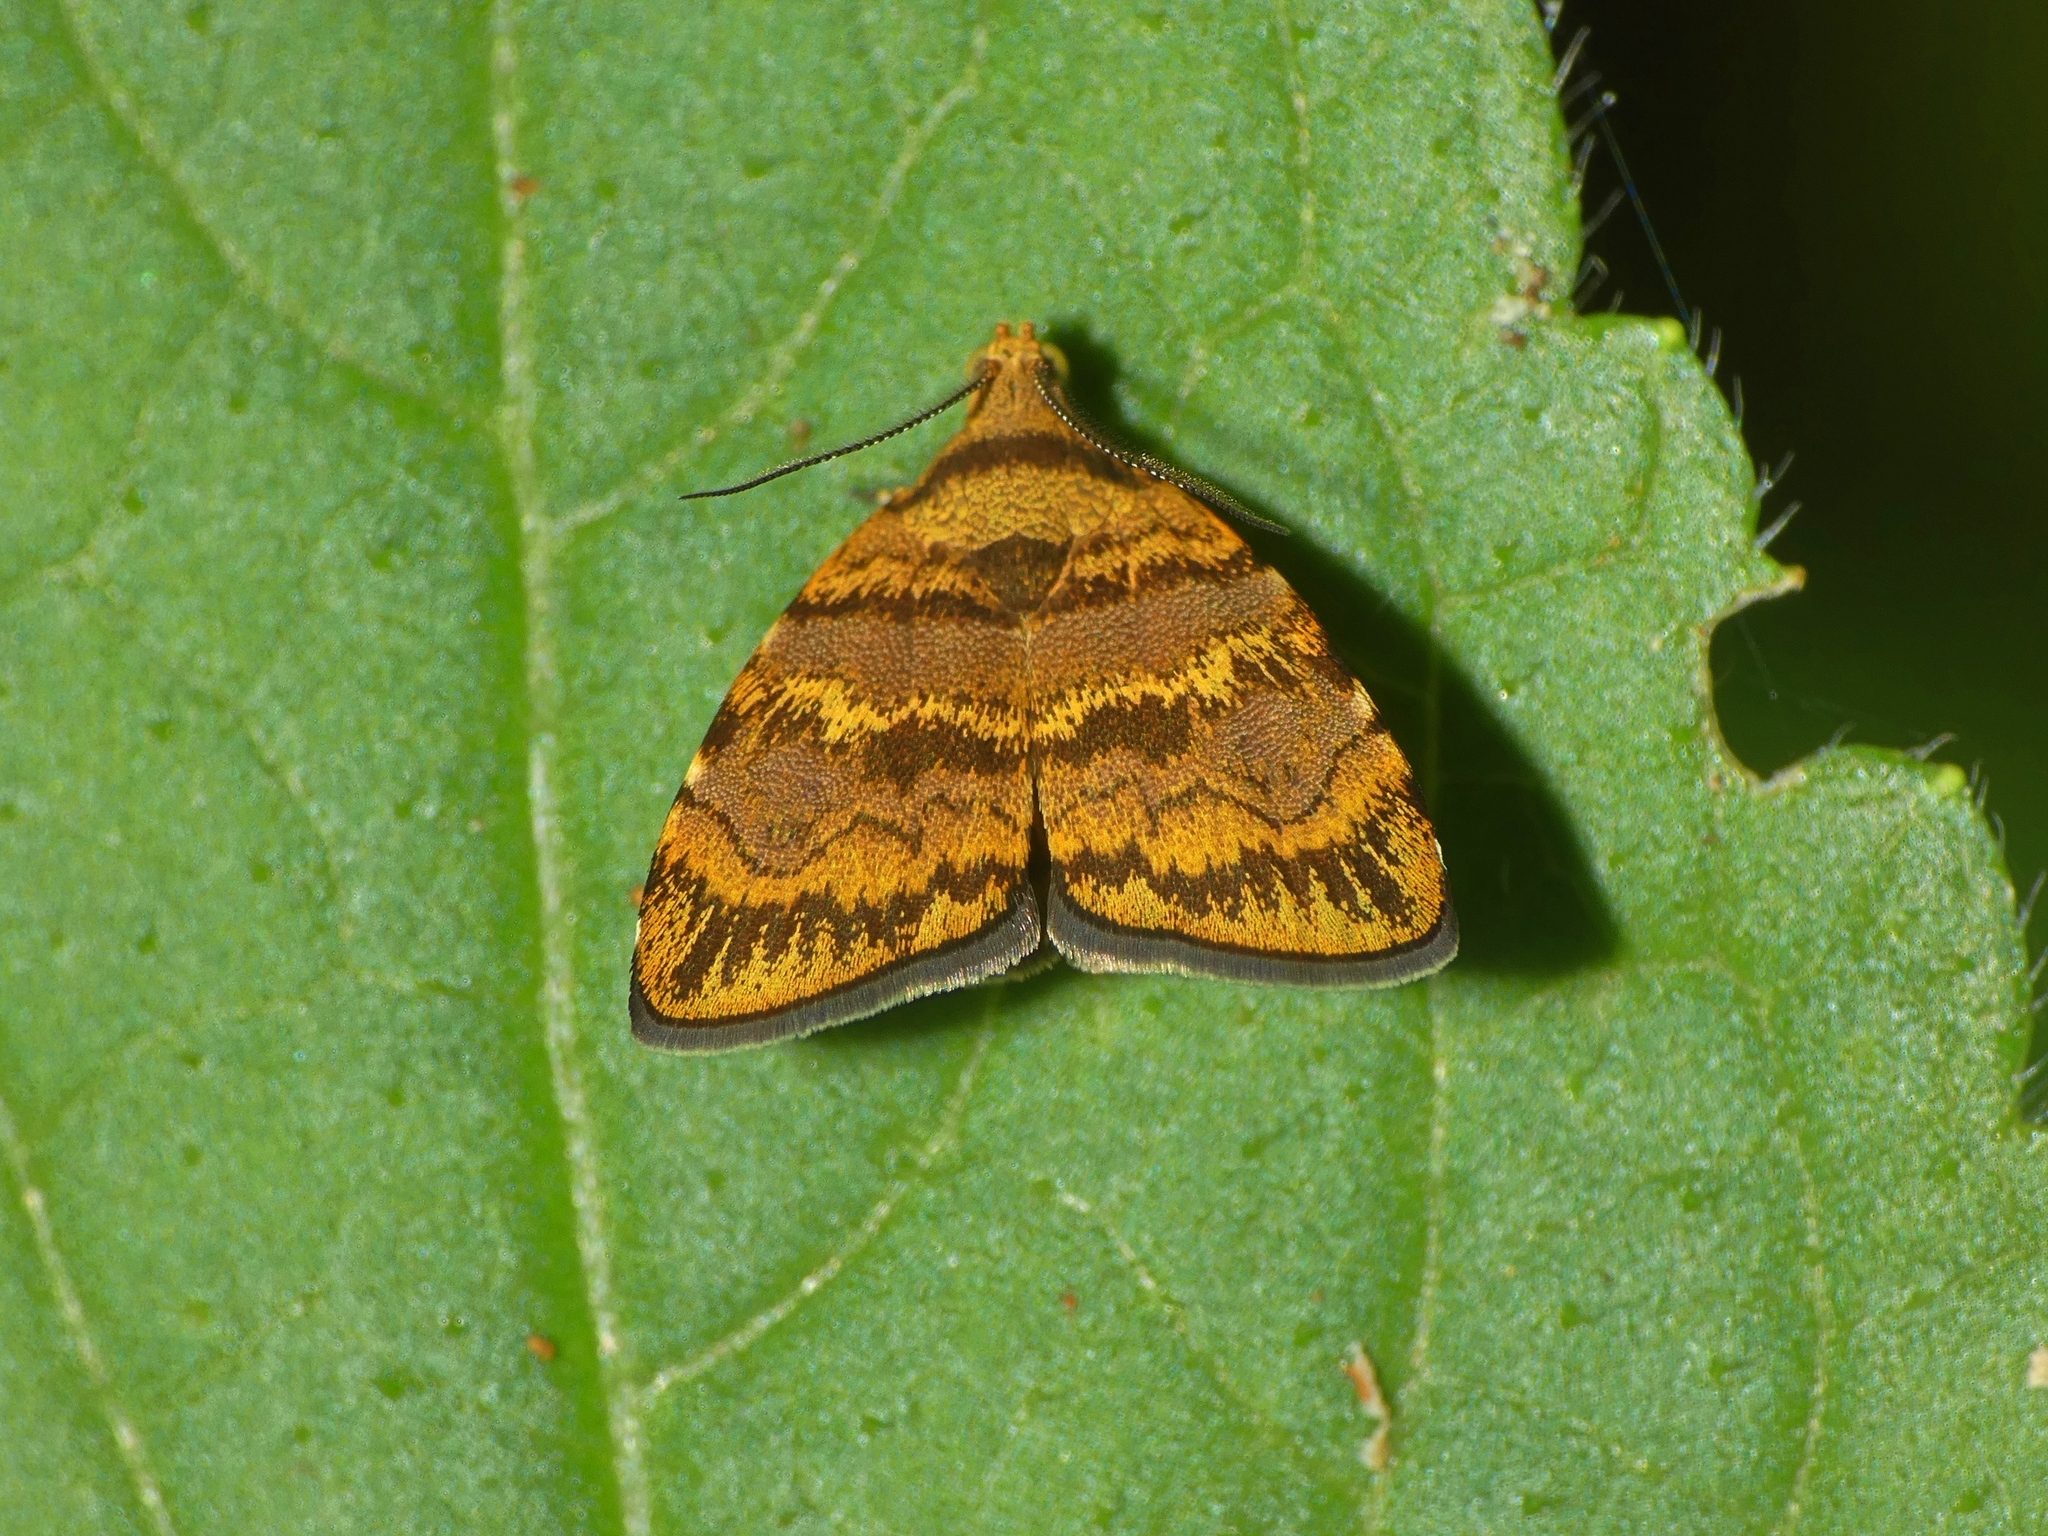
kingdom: Animalia
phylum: Arthropoda
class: Insecta
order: Lepidoptera
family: Choreutidae
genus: Choreutis
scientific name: Choreutis limonias
